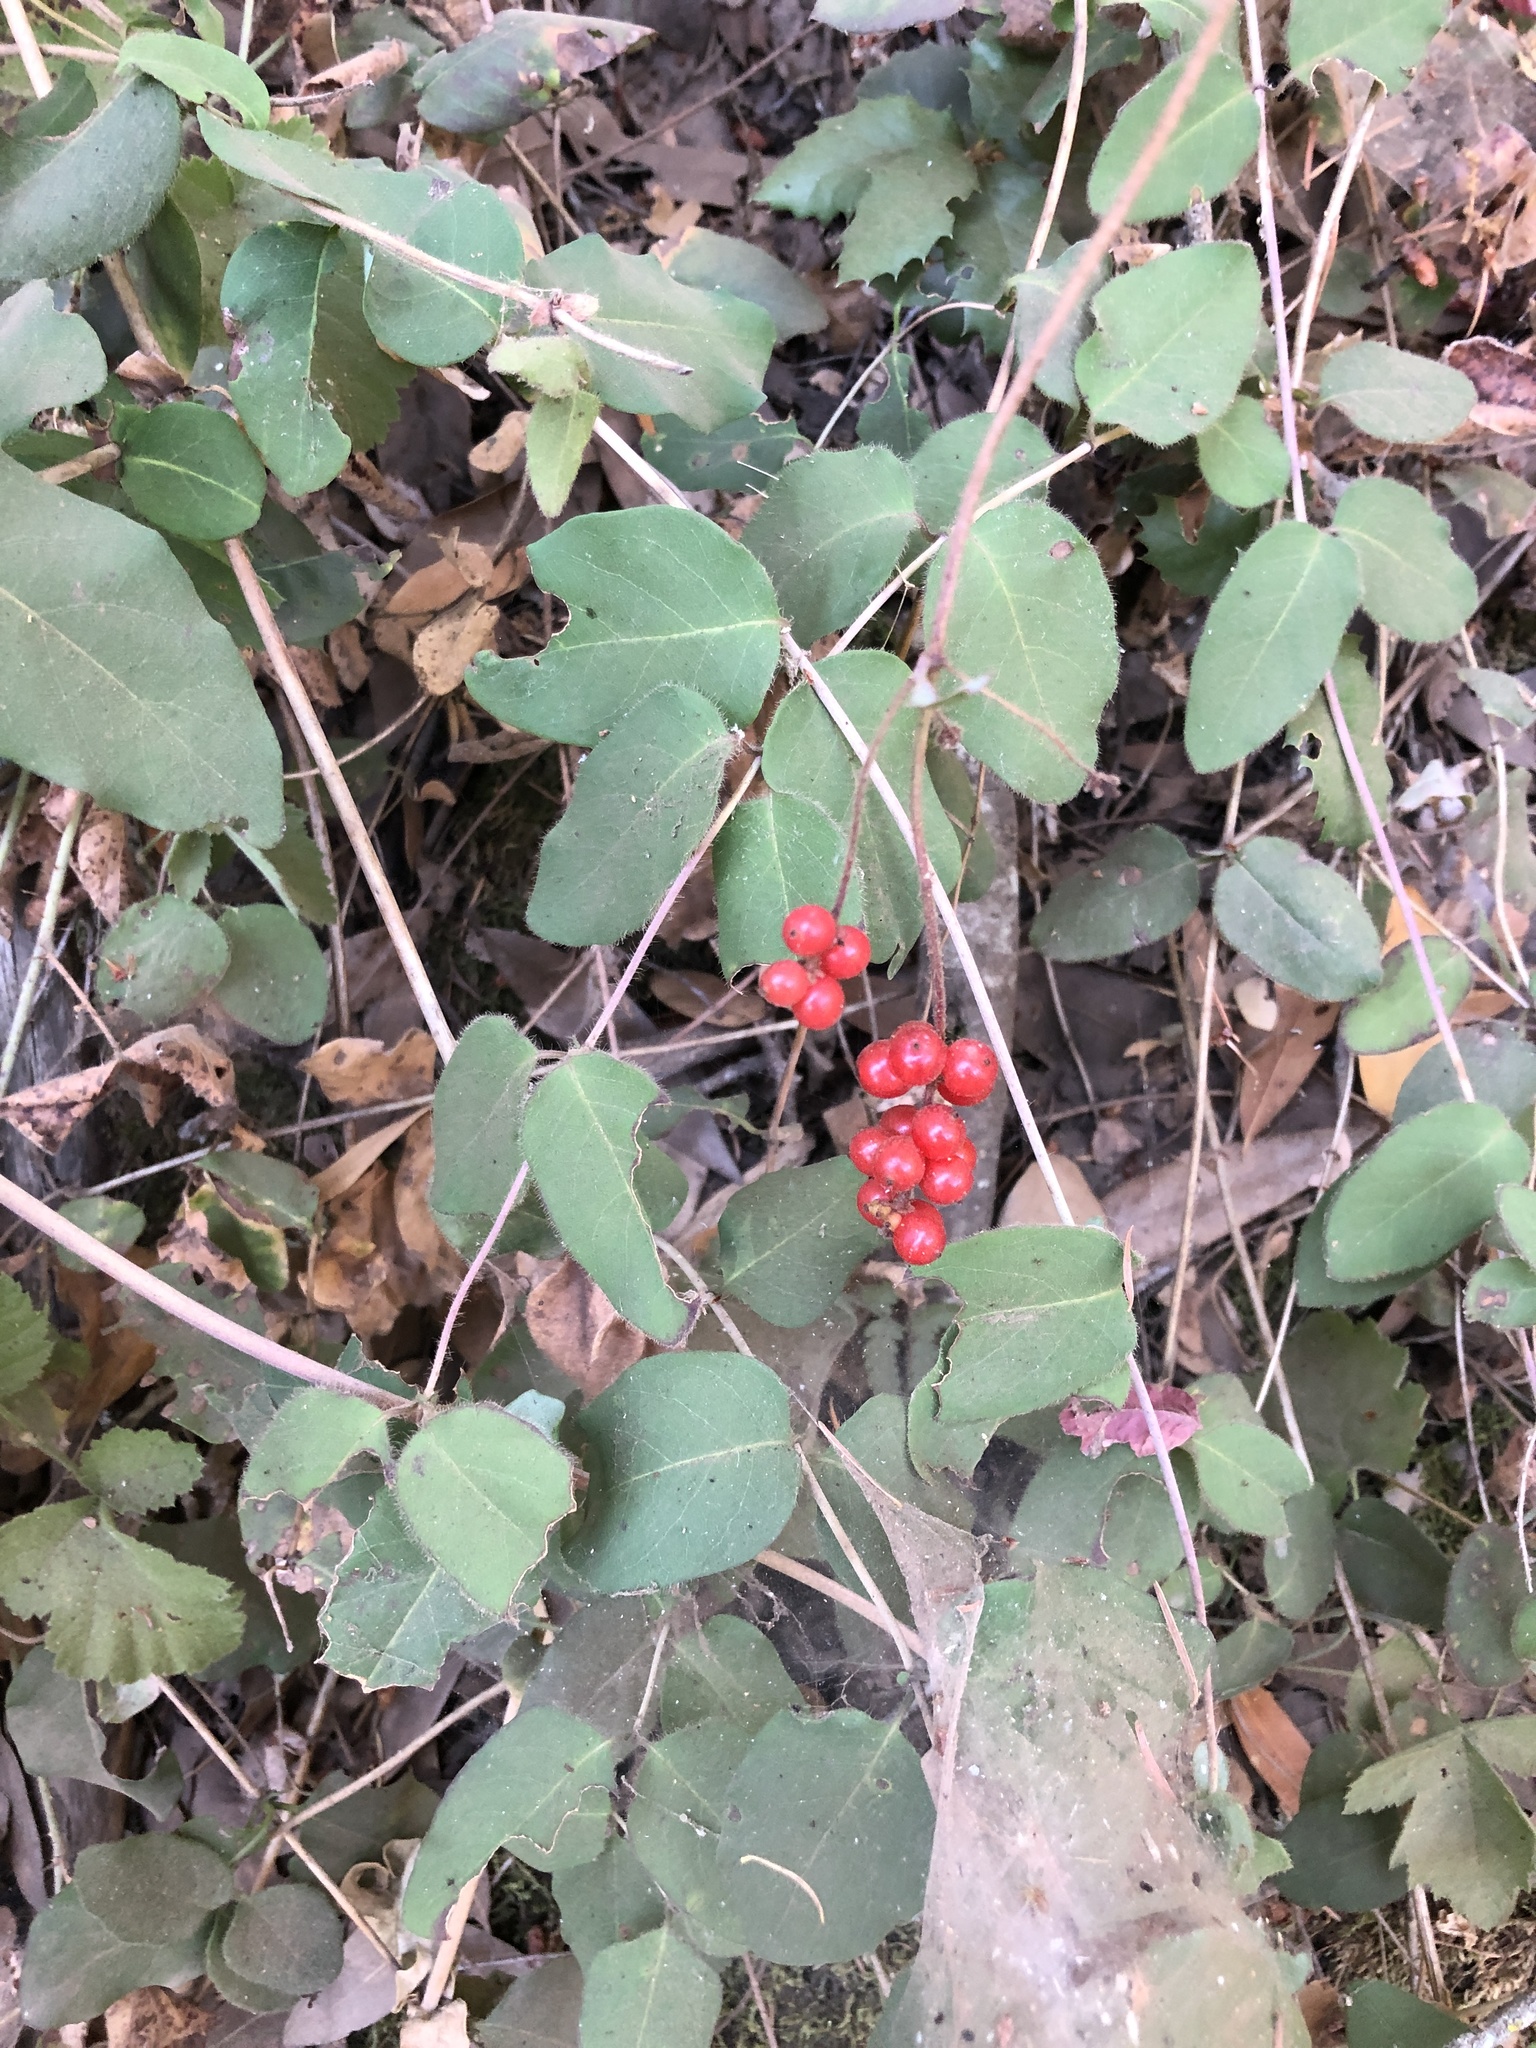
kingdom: Plantae
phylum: Tracheophyta
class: Magnoliopsida
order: Dipsacales
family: Caprifoliaceae
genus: Lonicera
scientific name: Lonicera hispidula
